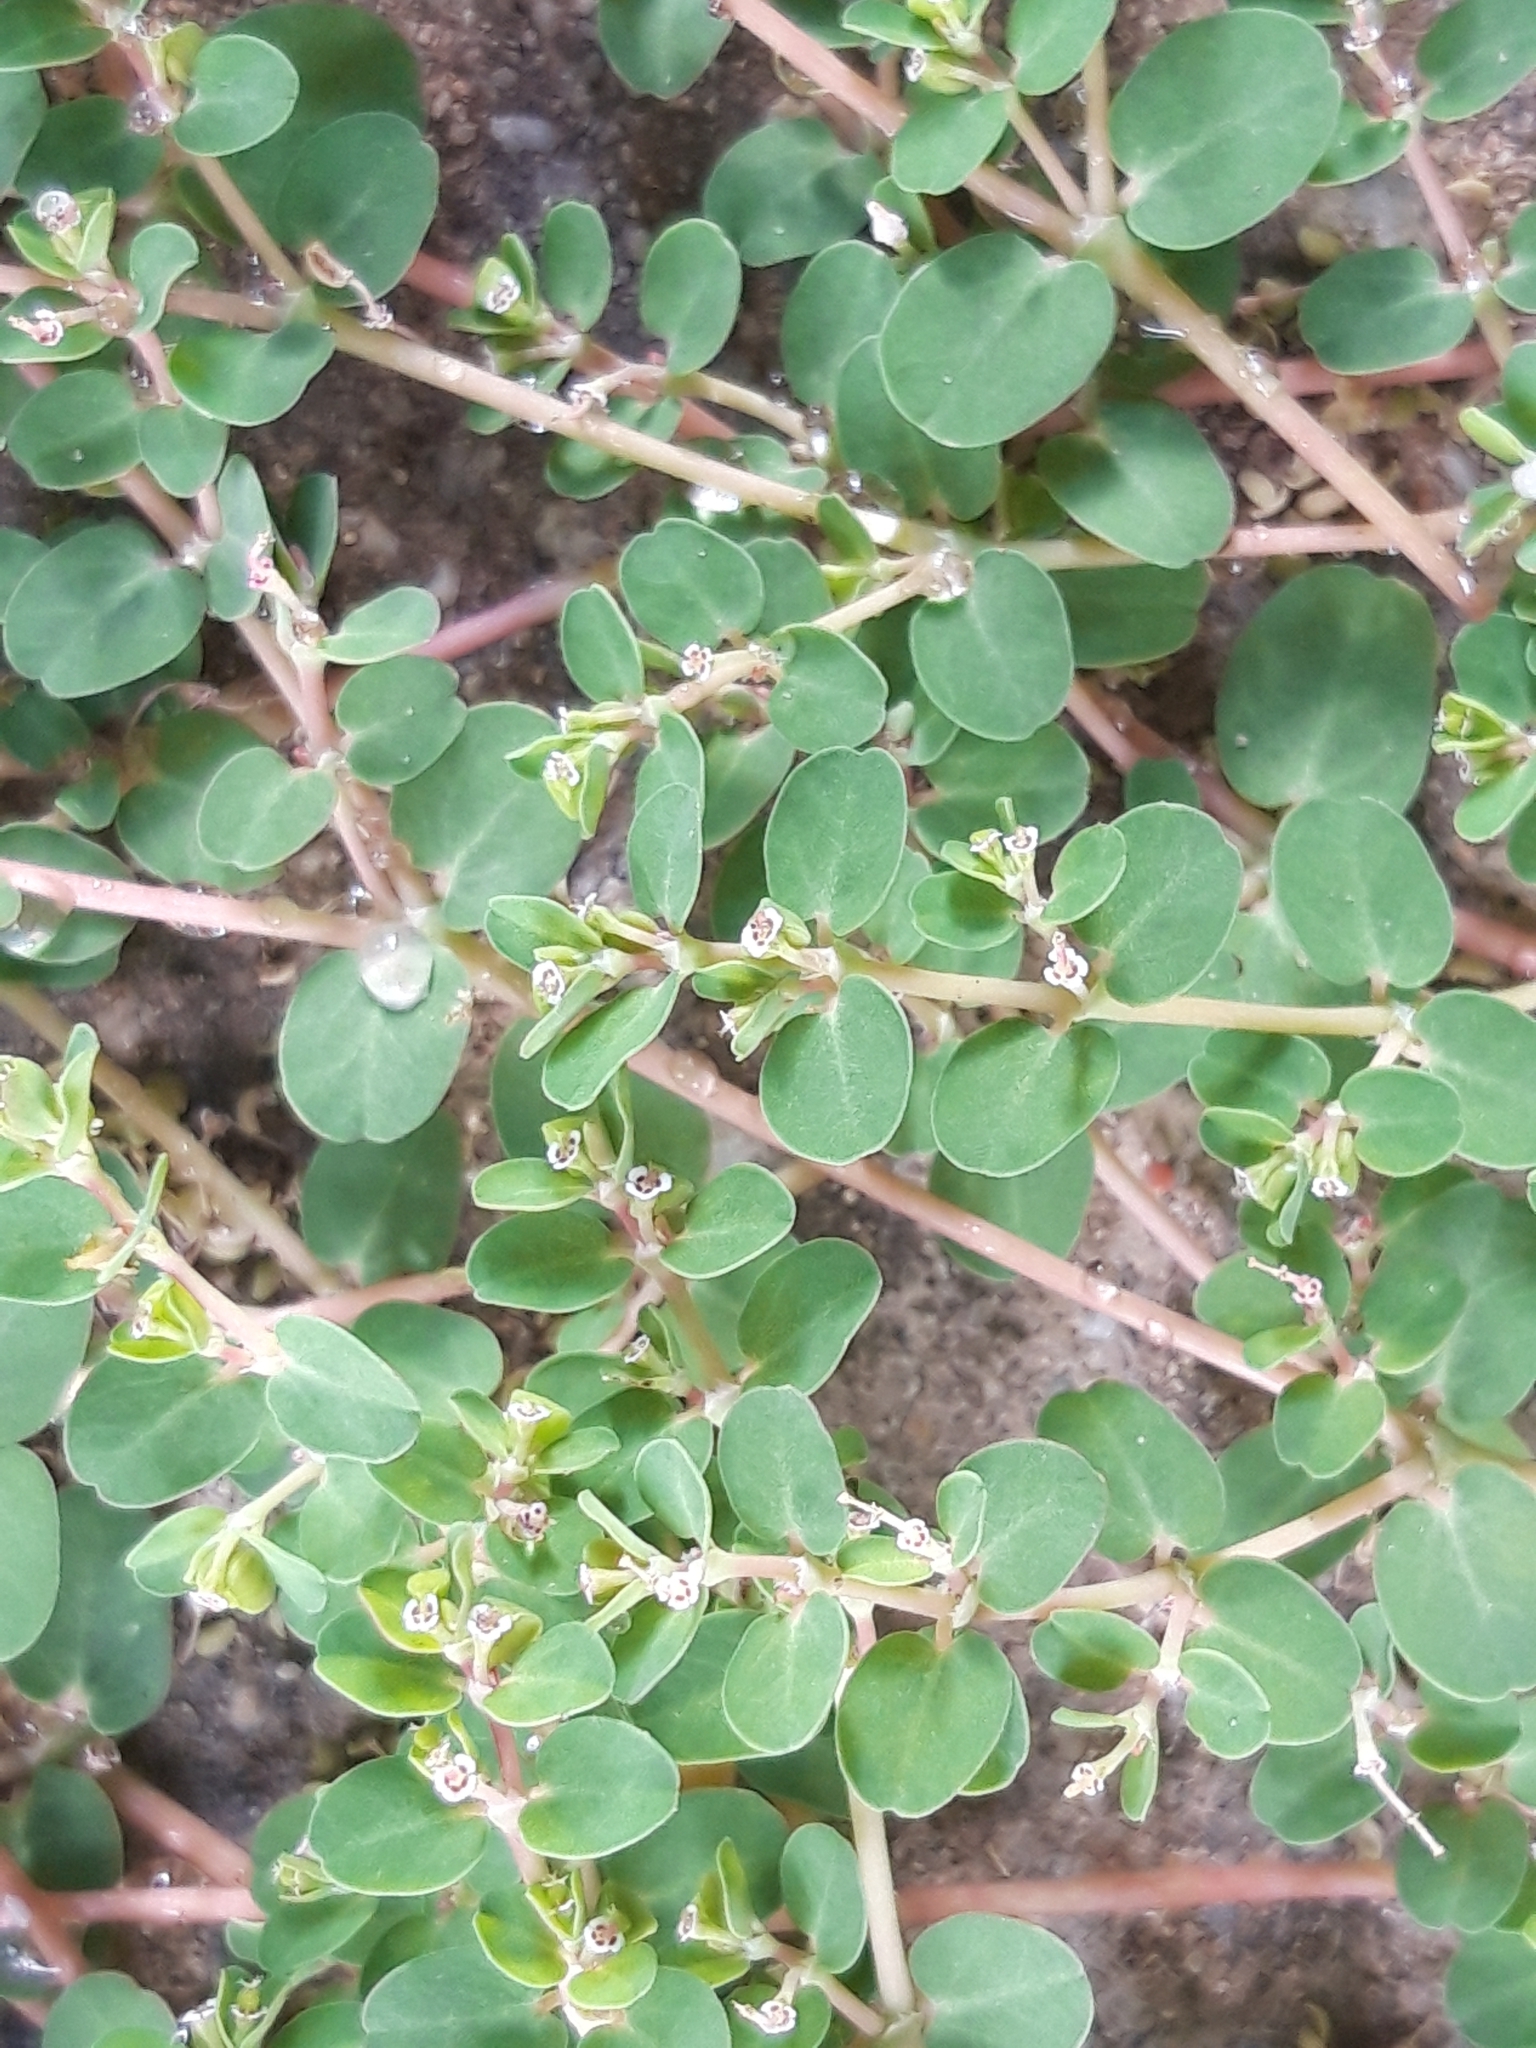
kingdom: Plantae
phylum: Tracheophyta
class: Magnoliopsida
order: Malpighiales
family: Euphorbiaceae
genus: Euphorbia
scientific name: Euphorbia serpens
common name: Matted sandmat
